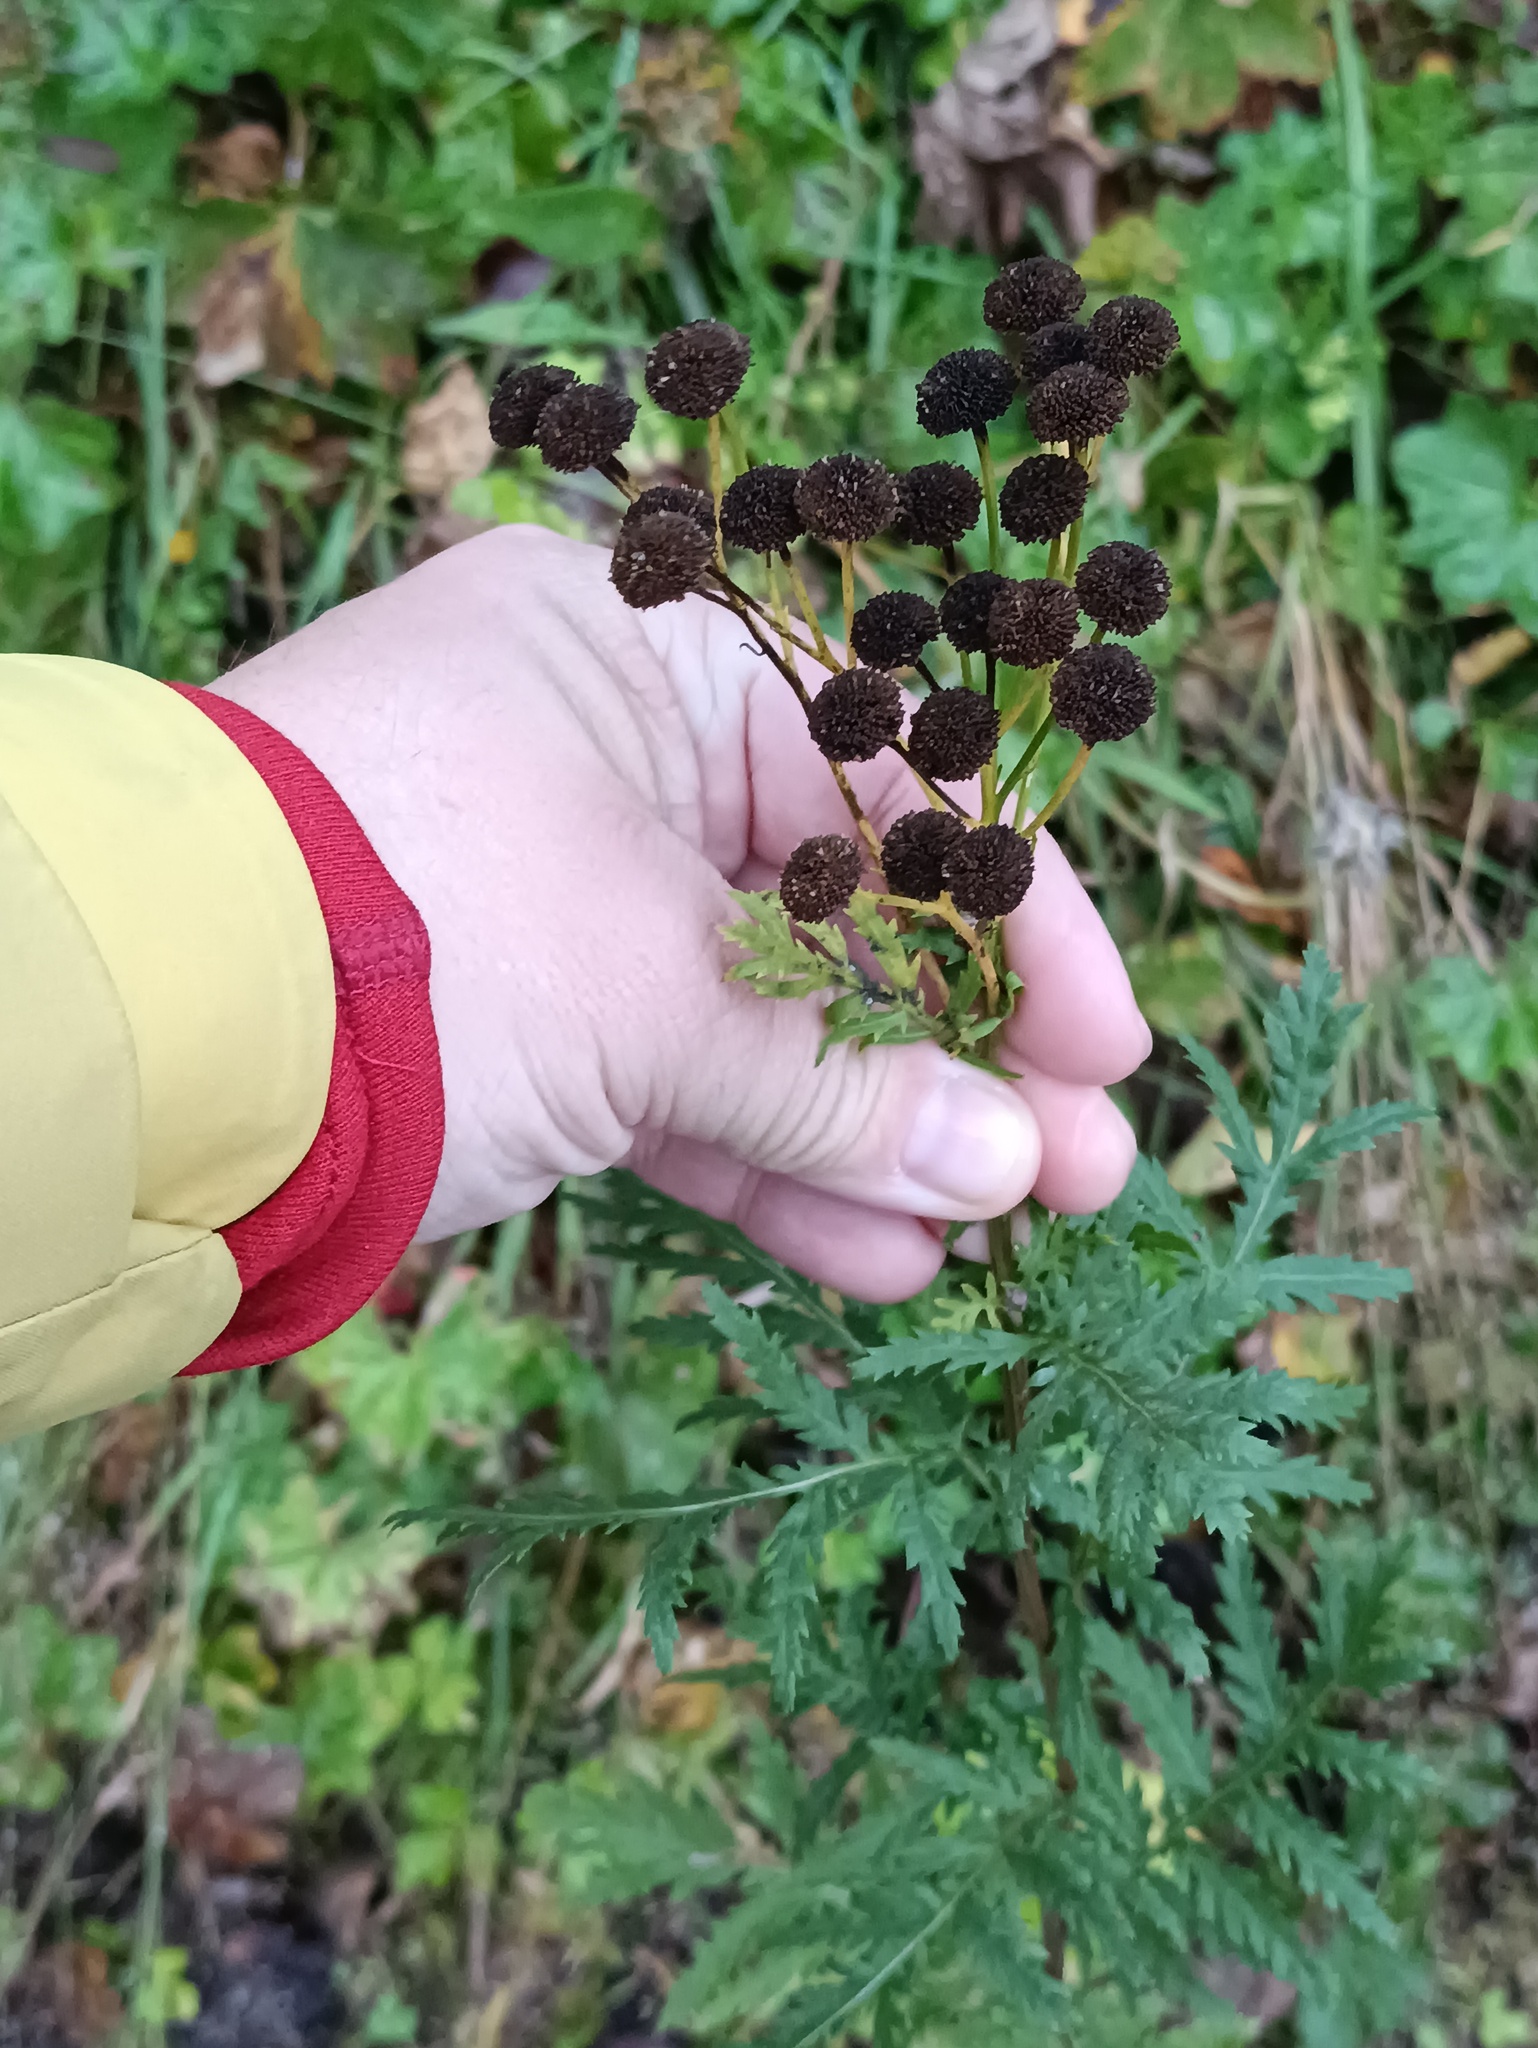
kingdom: Plantae
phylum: Tracheophyta
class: Magnoliopsida
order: Asterales
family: Asteraceae
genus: Tanacetum
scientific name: Tanacetum vulgare
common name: Common tansy
